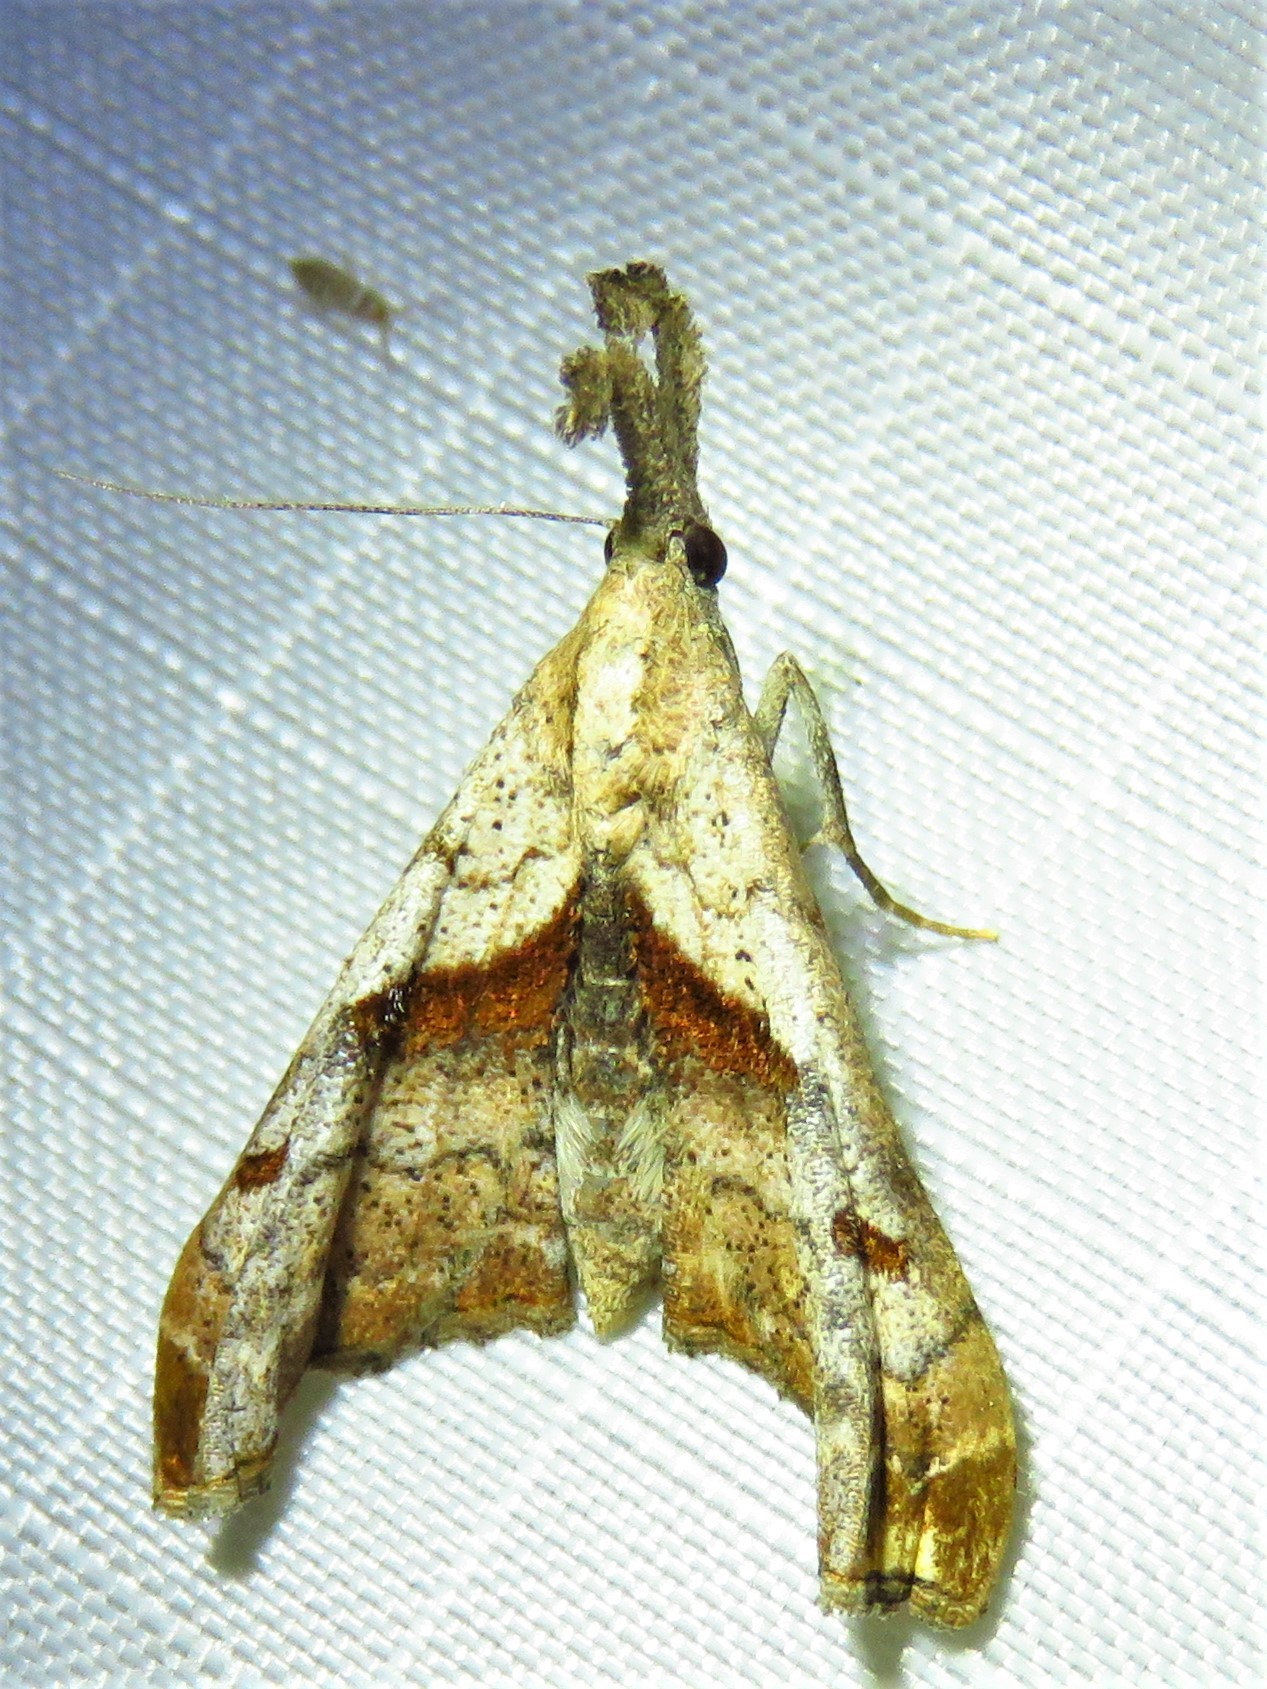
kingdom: Animalia
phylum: Arthropoda
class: Insecta
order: Lepidoptera
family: Erebidae
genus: Palthis
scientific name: Palthis angulalis
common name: Dark-spotted palthis moth
